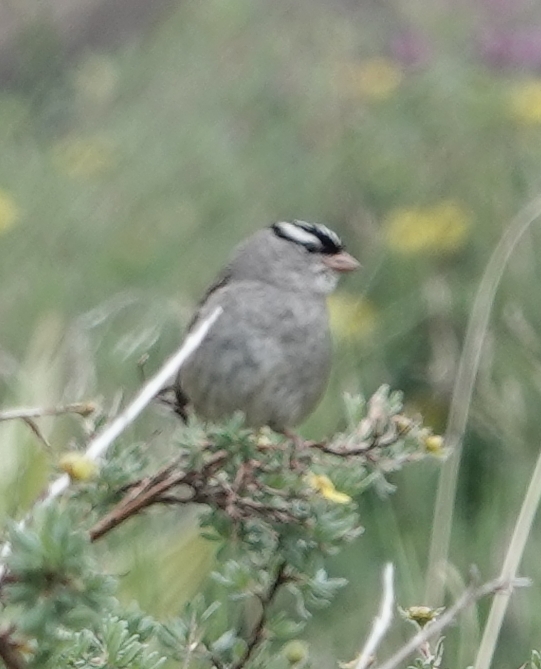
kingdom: Animalia
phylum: Chordata
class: Aves
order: Passeriformes
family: Passerellidae
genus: Zonotrichia
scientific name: Zonotrichia leucophrys
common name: White-crowned sparrow
